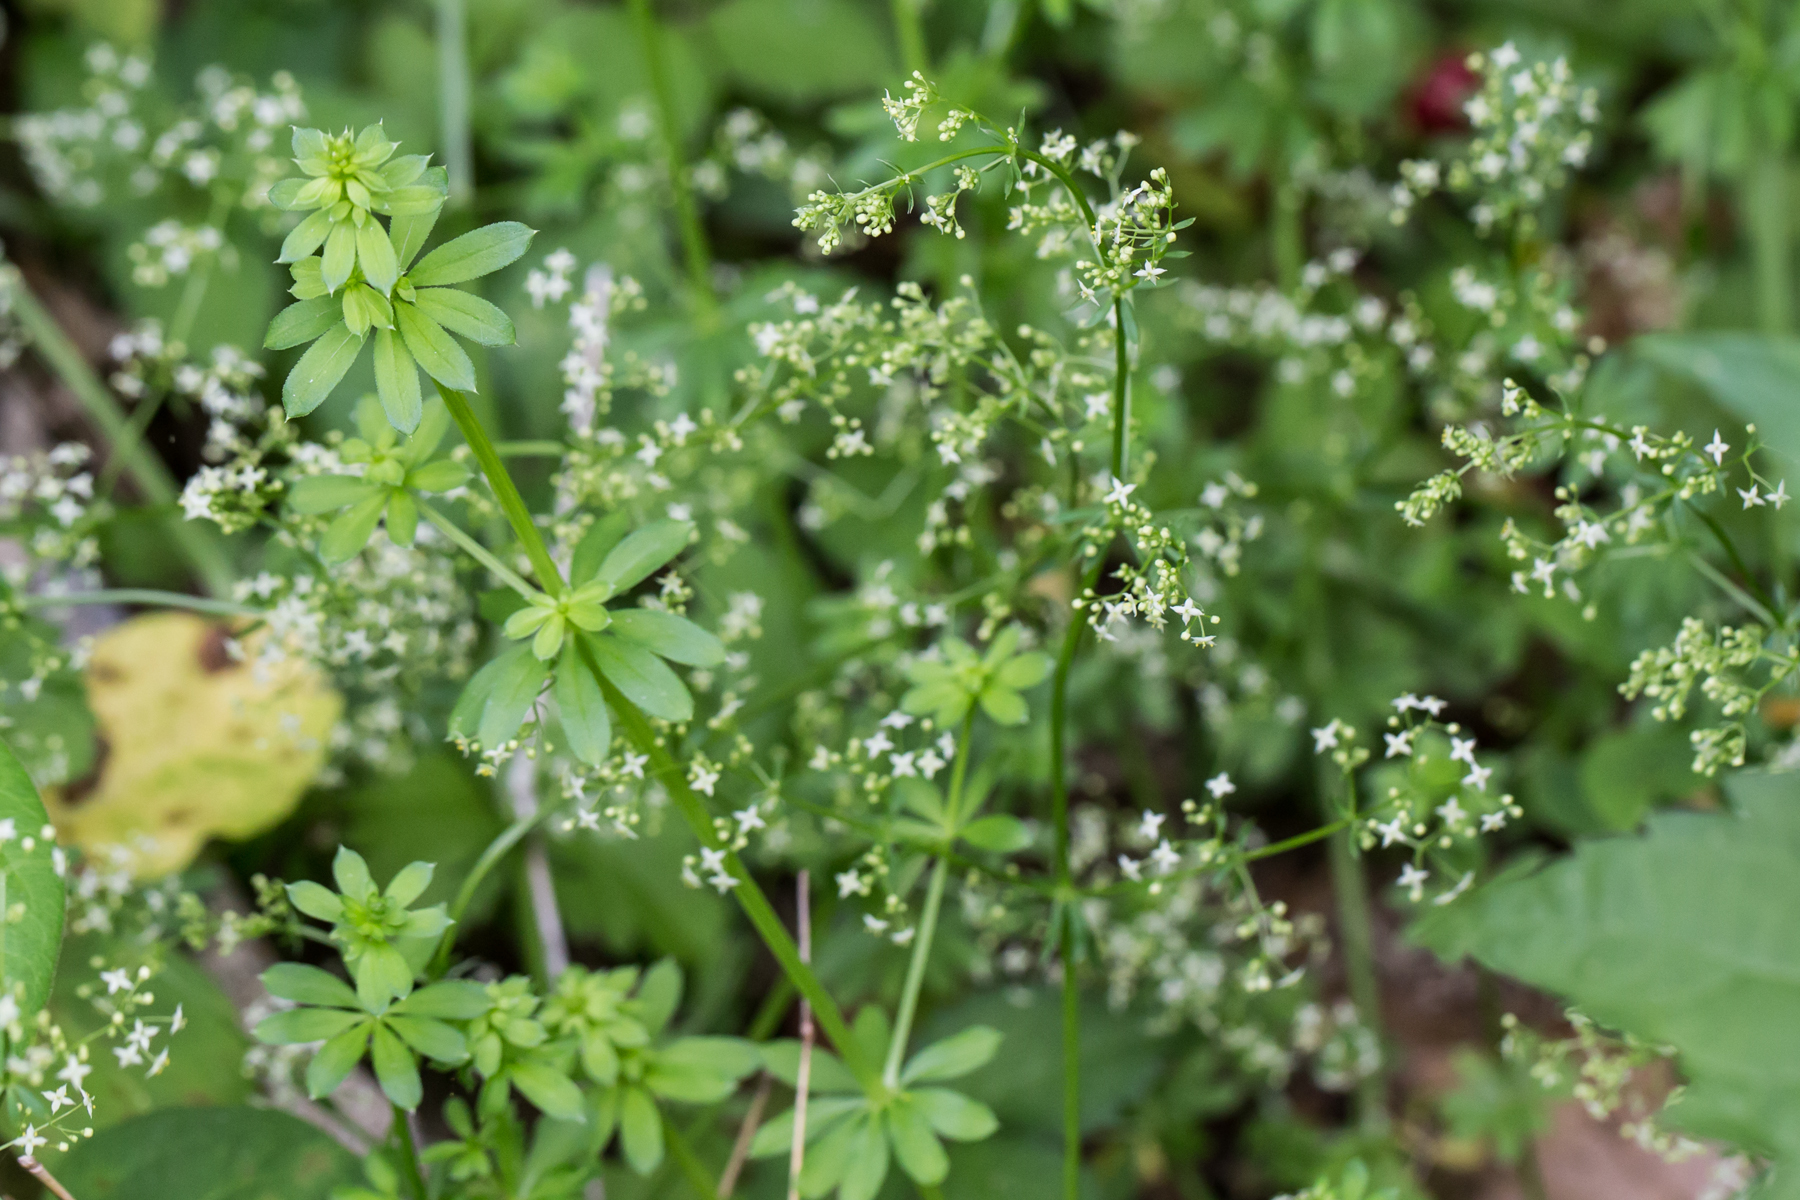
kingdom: Plantae
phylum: Tracheophyta
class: Magnoliopsida
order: Gentianales
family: Rubiaceae
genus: Galium
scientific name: Galium mollugo
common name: Hedge bedstraw
